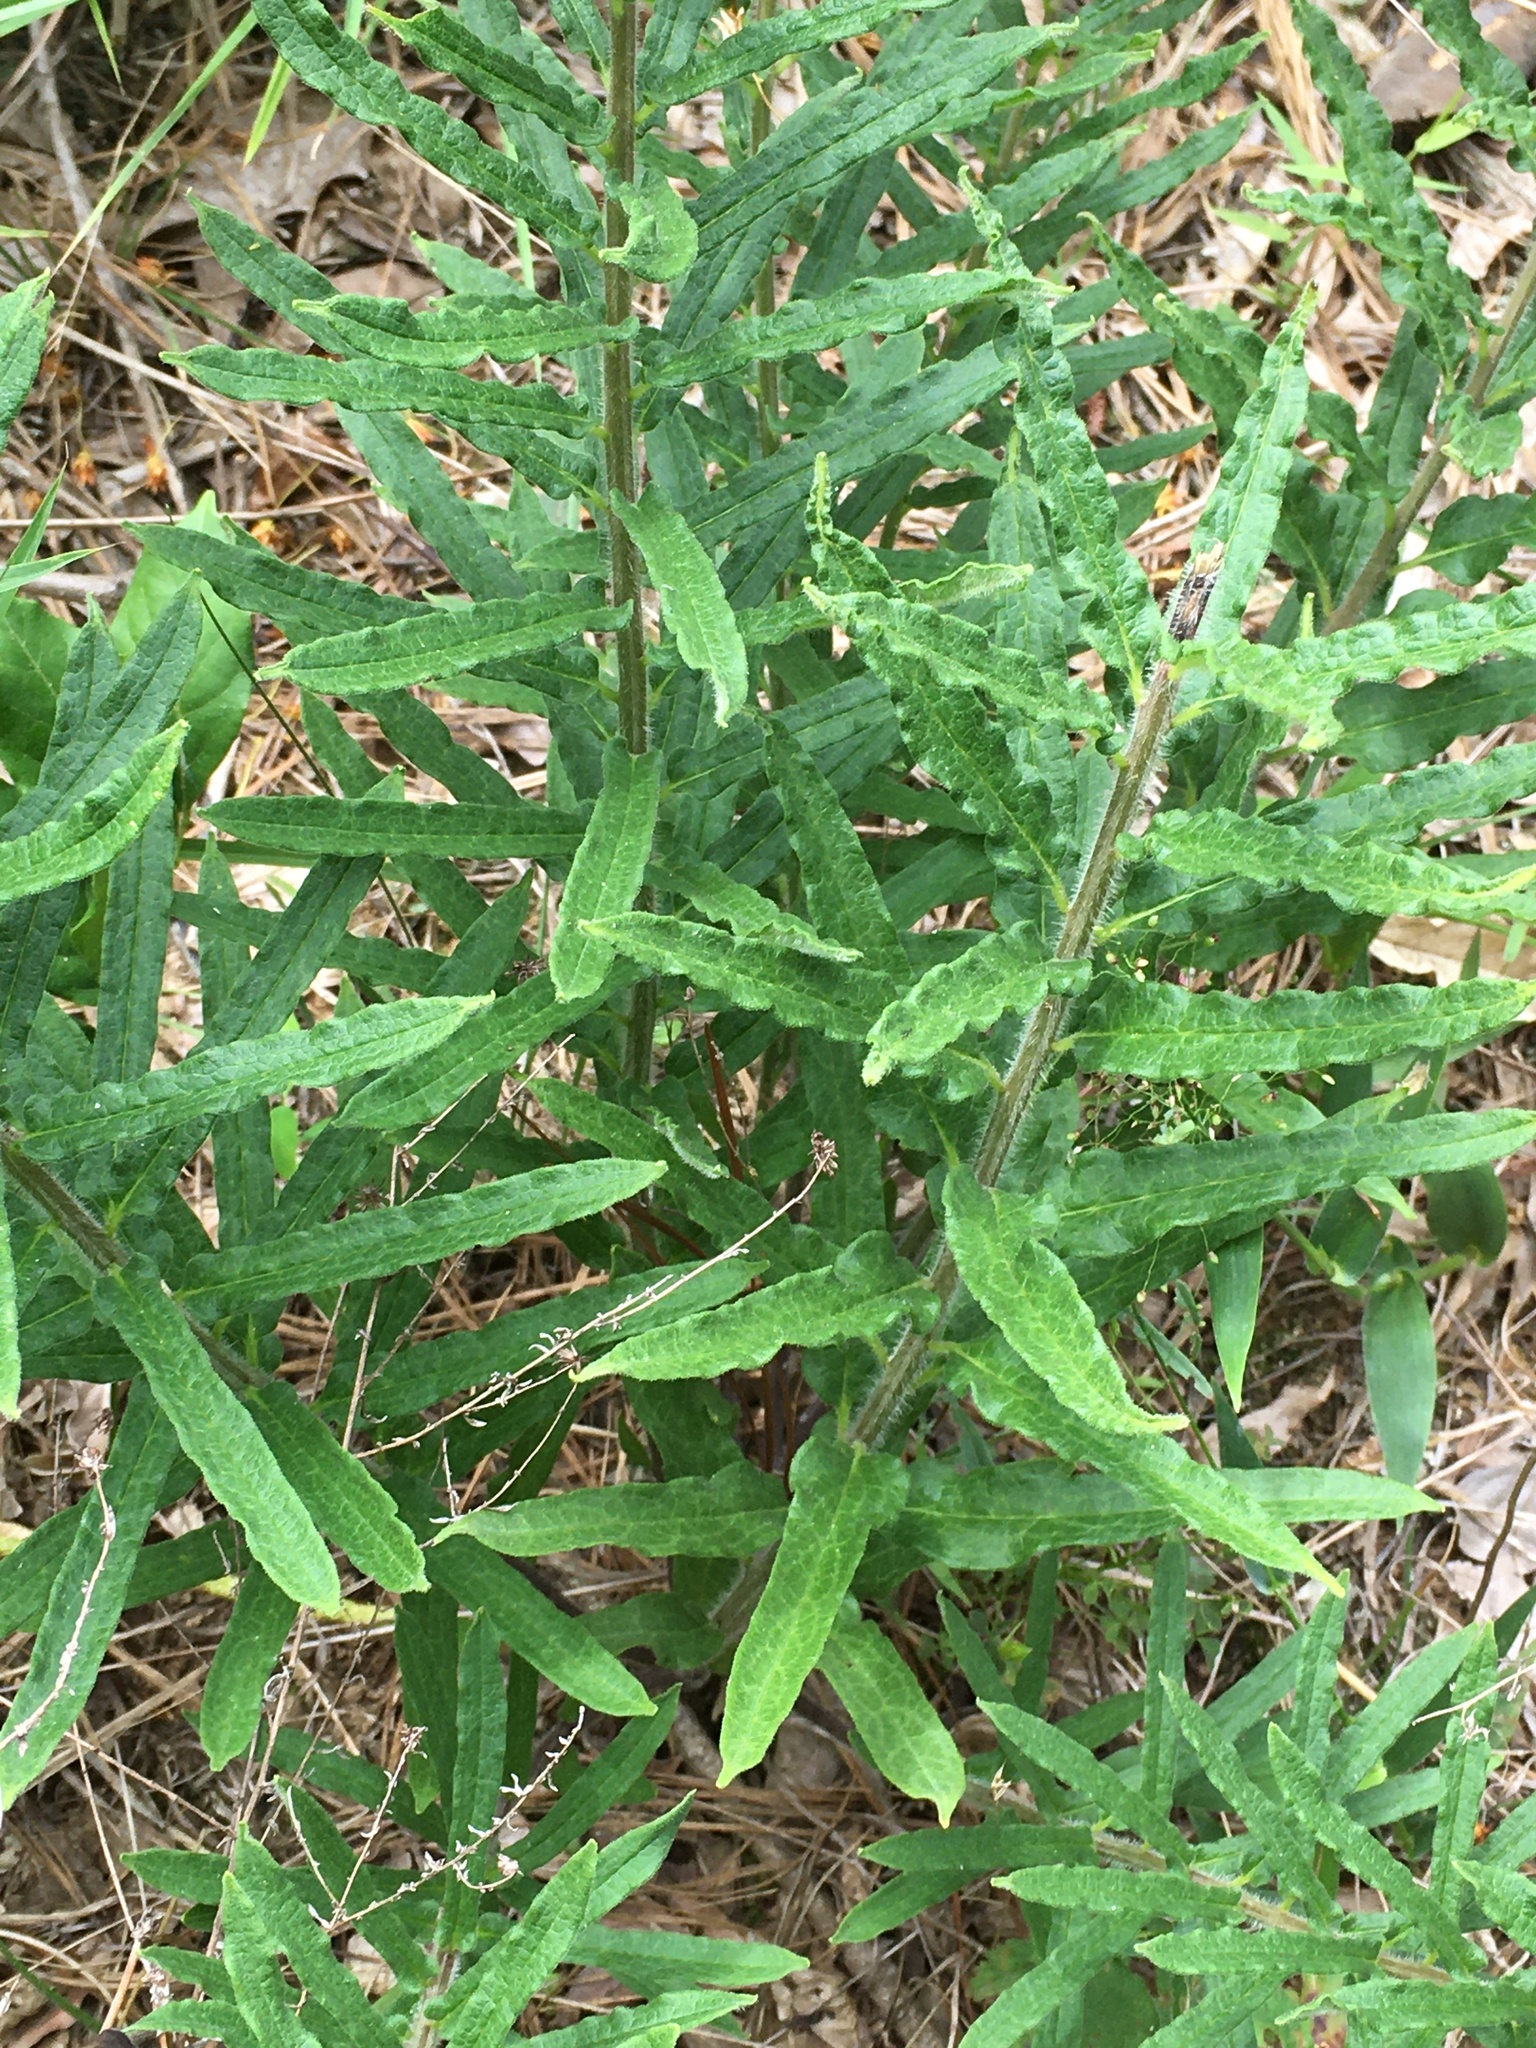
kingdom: Plantae
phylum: Tracheophyta
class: Magnoliopsida
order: Gentianales
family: Apocynaceae
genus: Asclepias
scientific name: Asclepias tuberosa
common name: Butterfly milkweed
